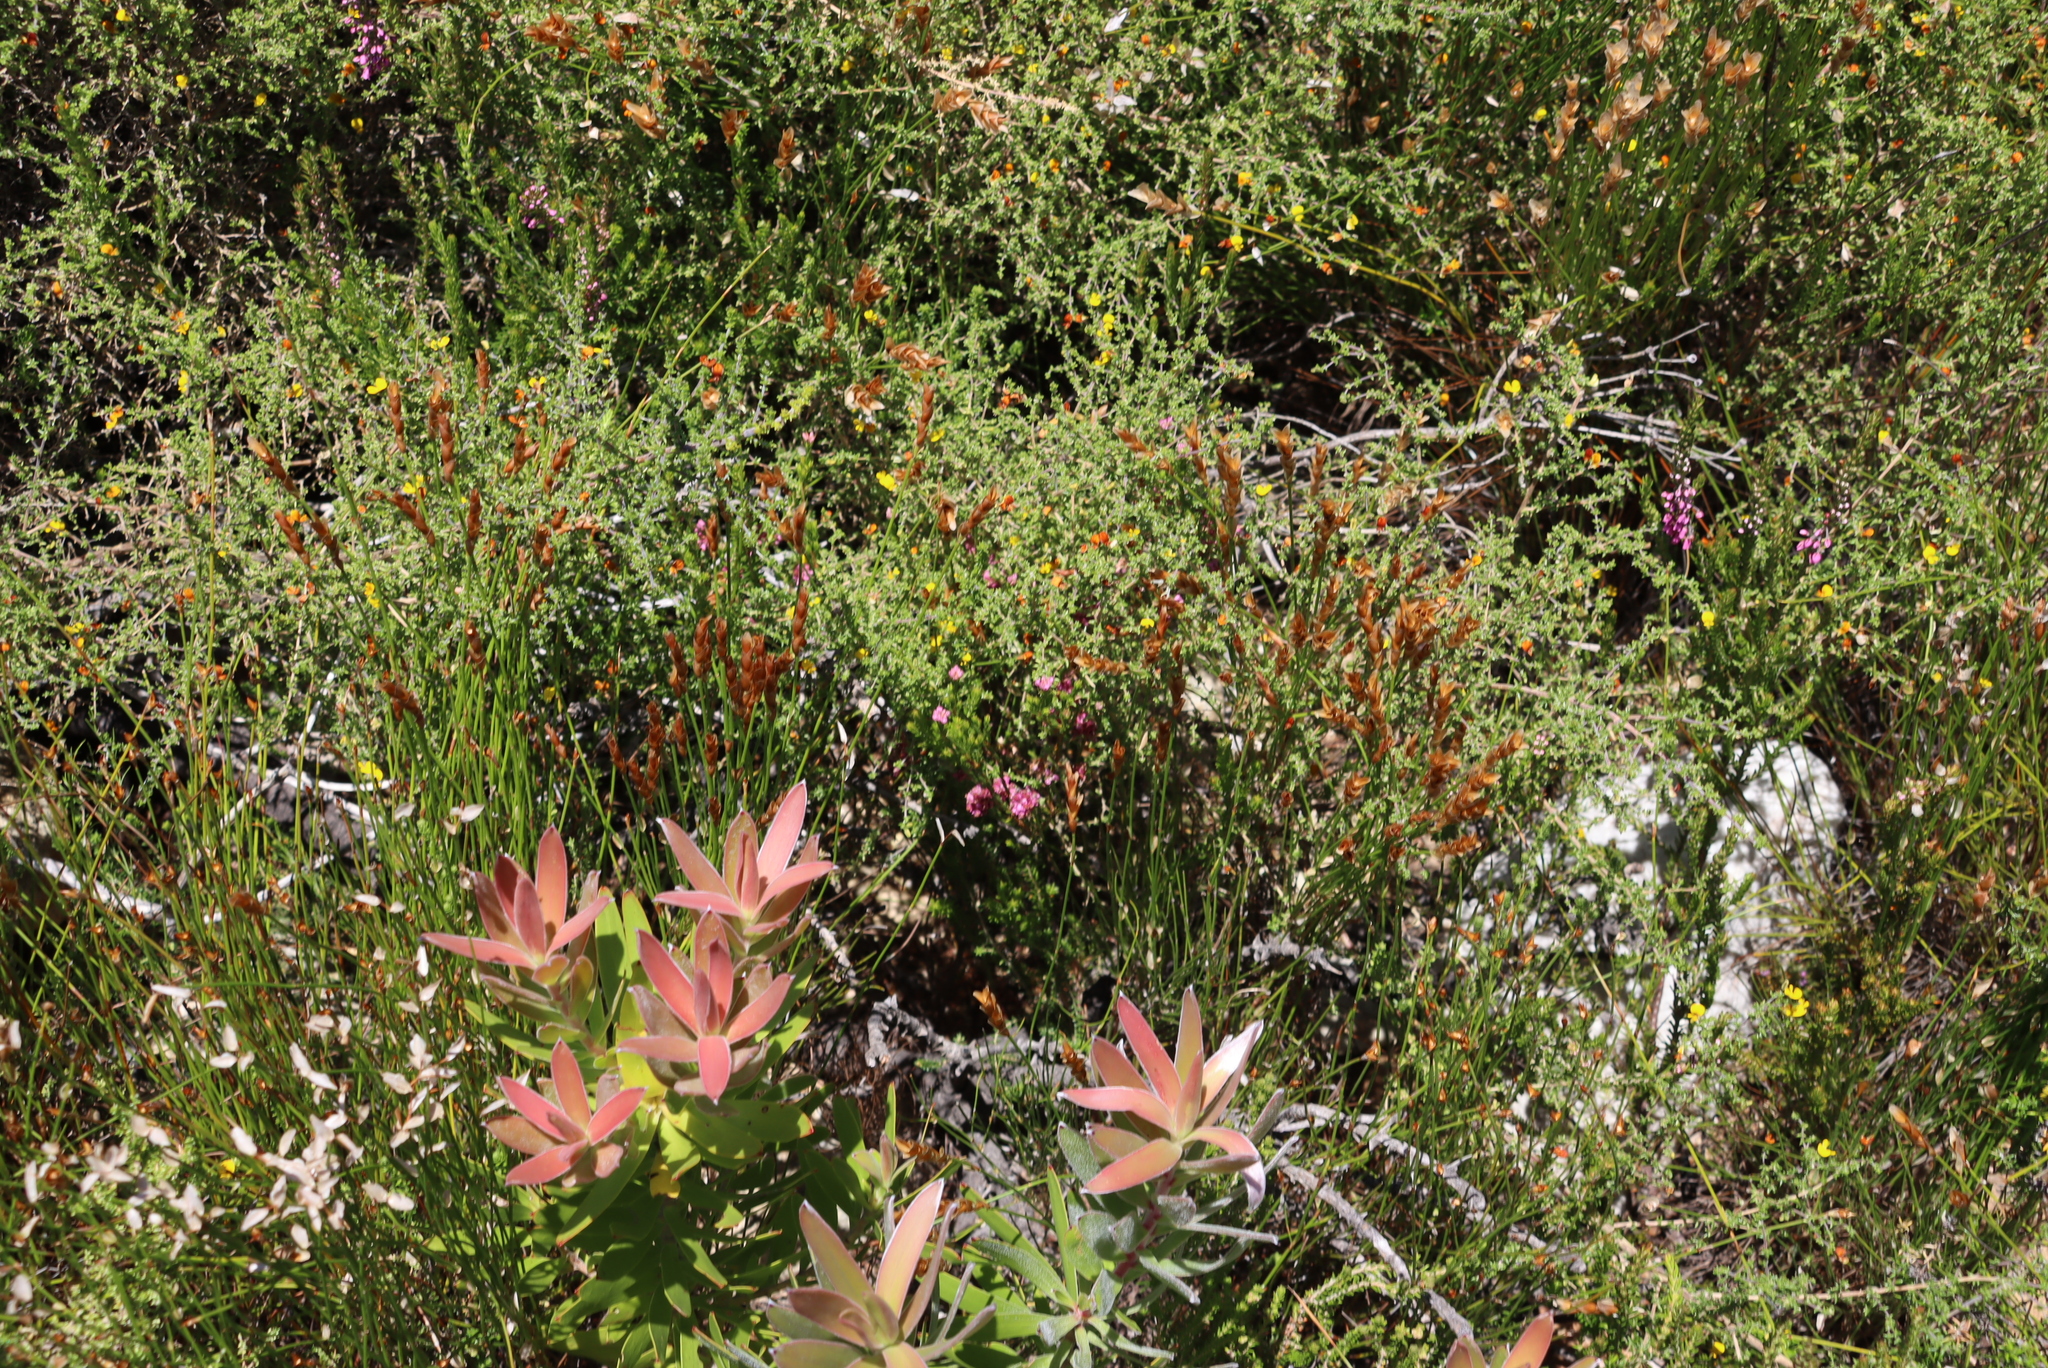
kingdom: Plantae
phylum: Tracheophyta
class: Magnoliopsida
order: Ericales
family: Ericaceae
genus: Erica
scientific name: Erica corifolia
